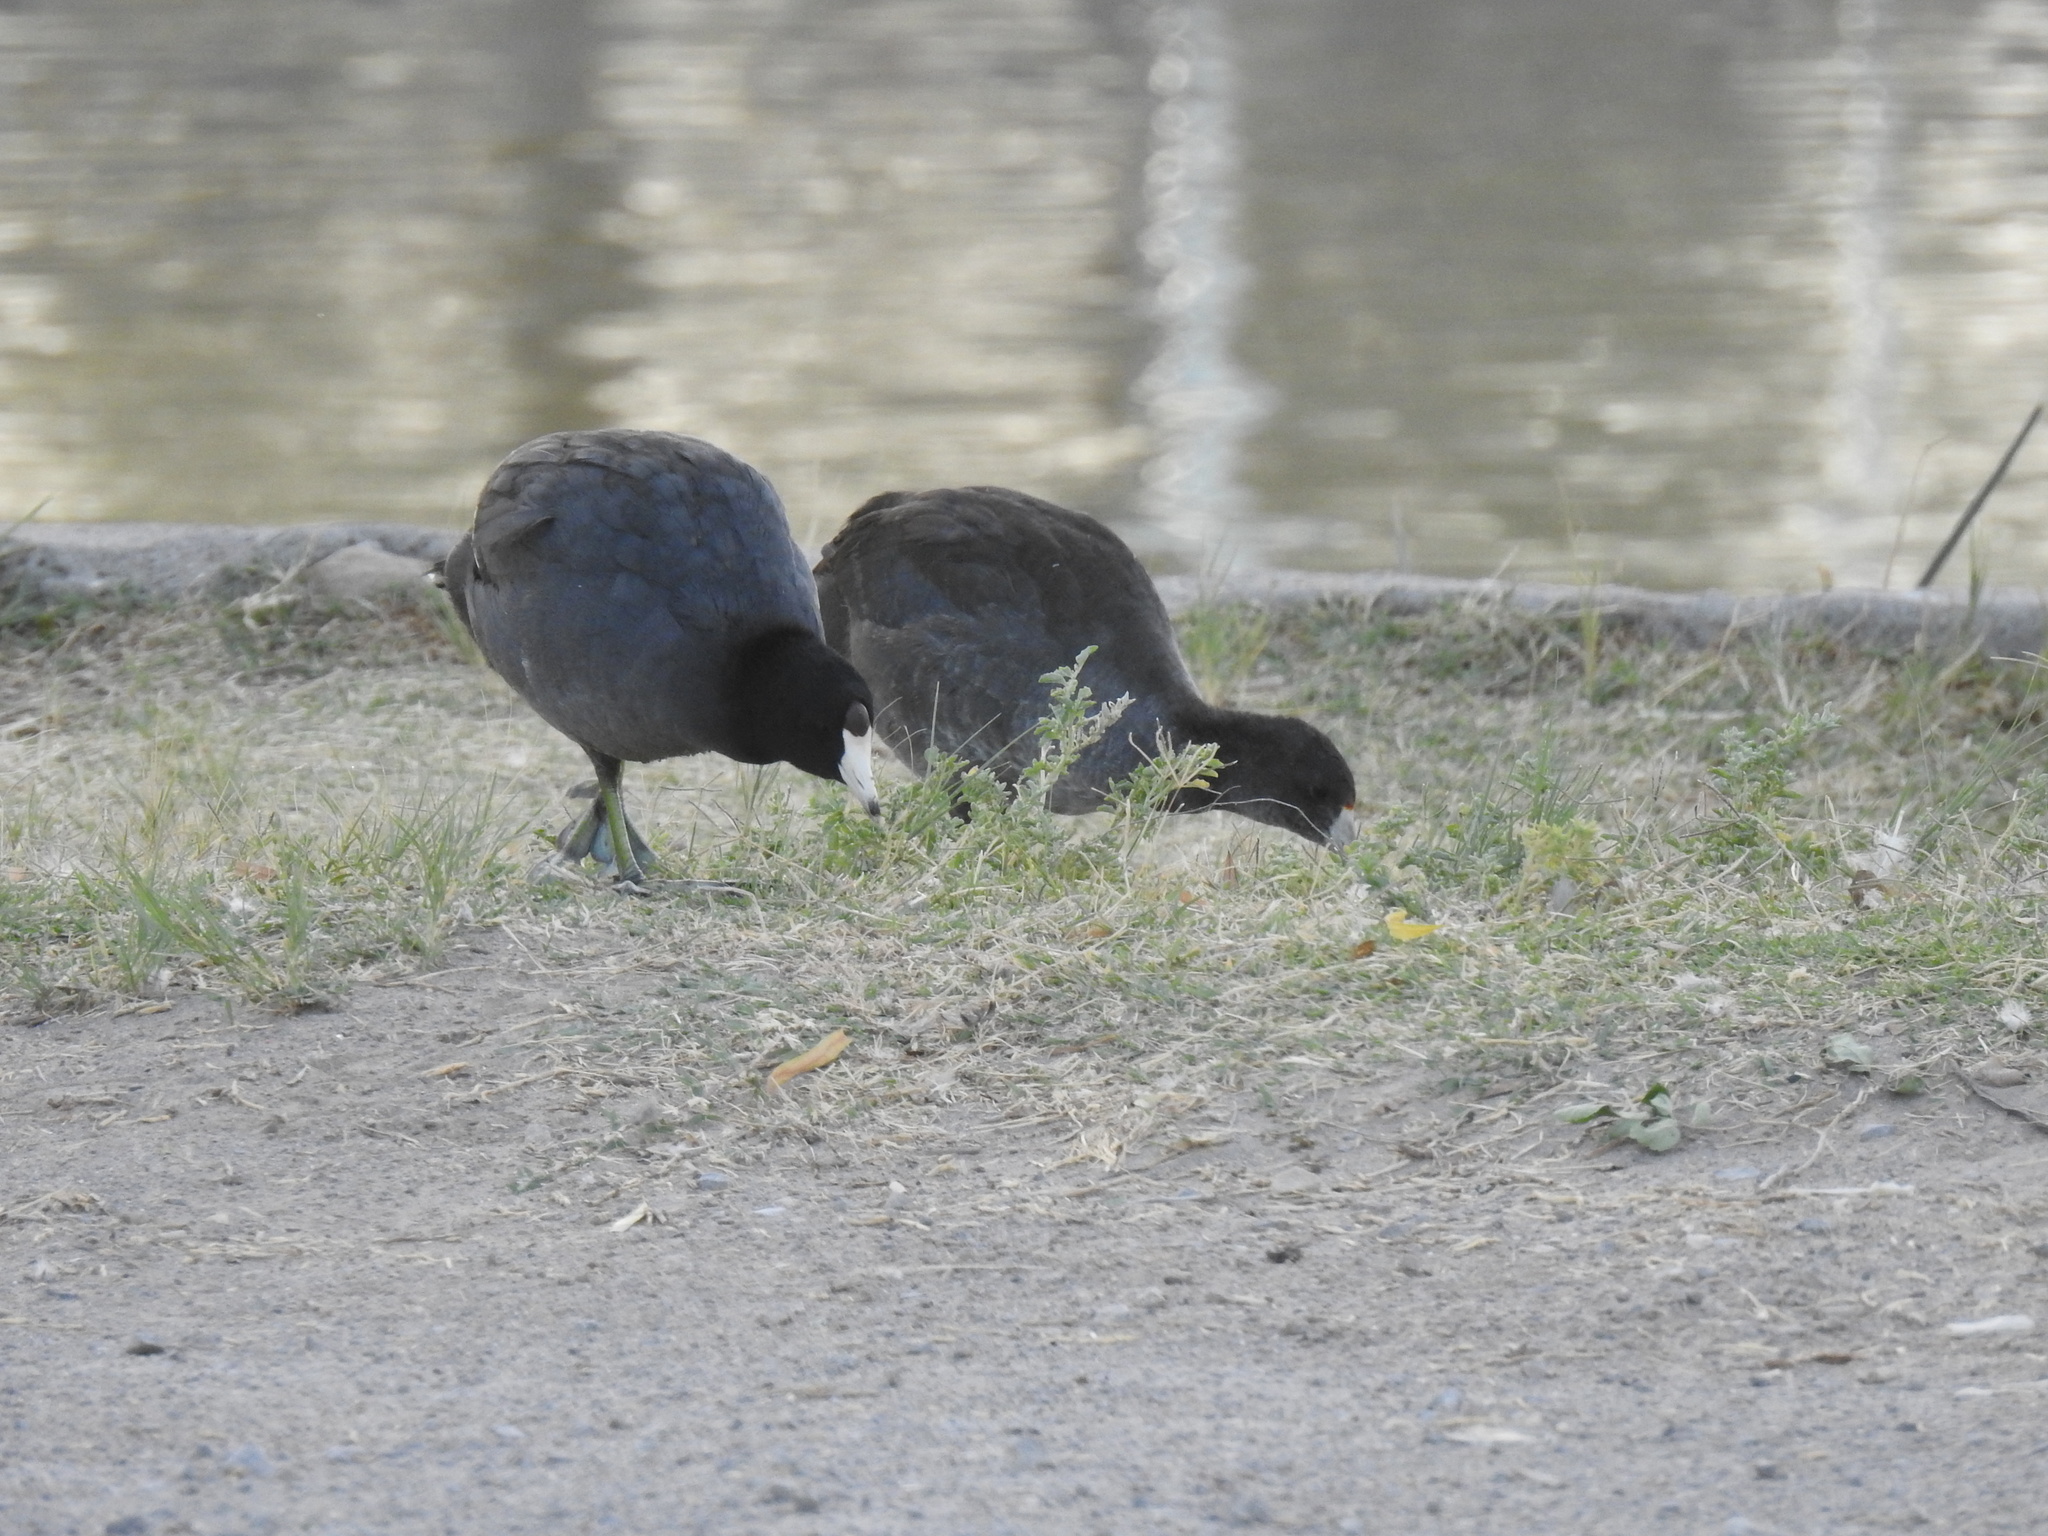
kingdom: Animalia
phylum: Chordata
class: Aves
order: Gruiformes
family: Rallidae
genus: Fulica
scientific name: Fulica americana
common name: American coot
